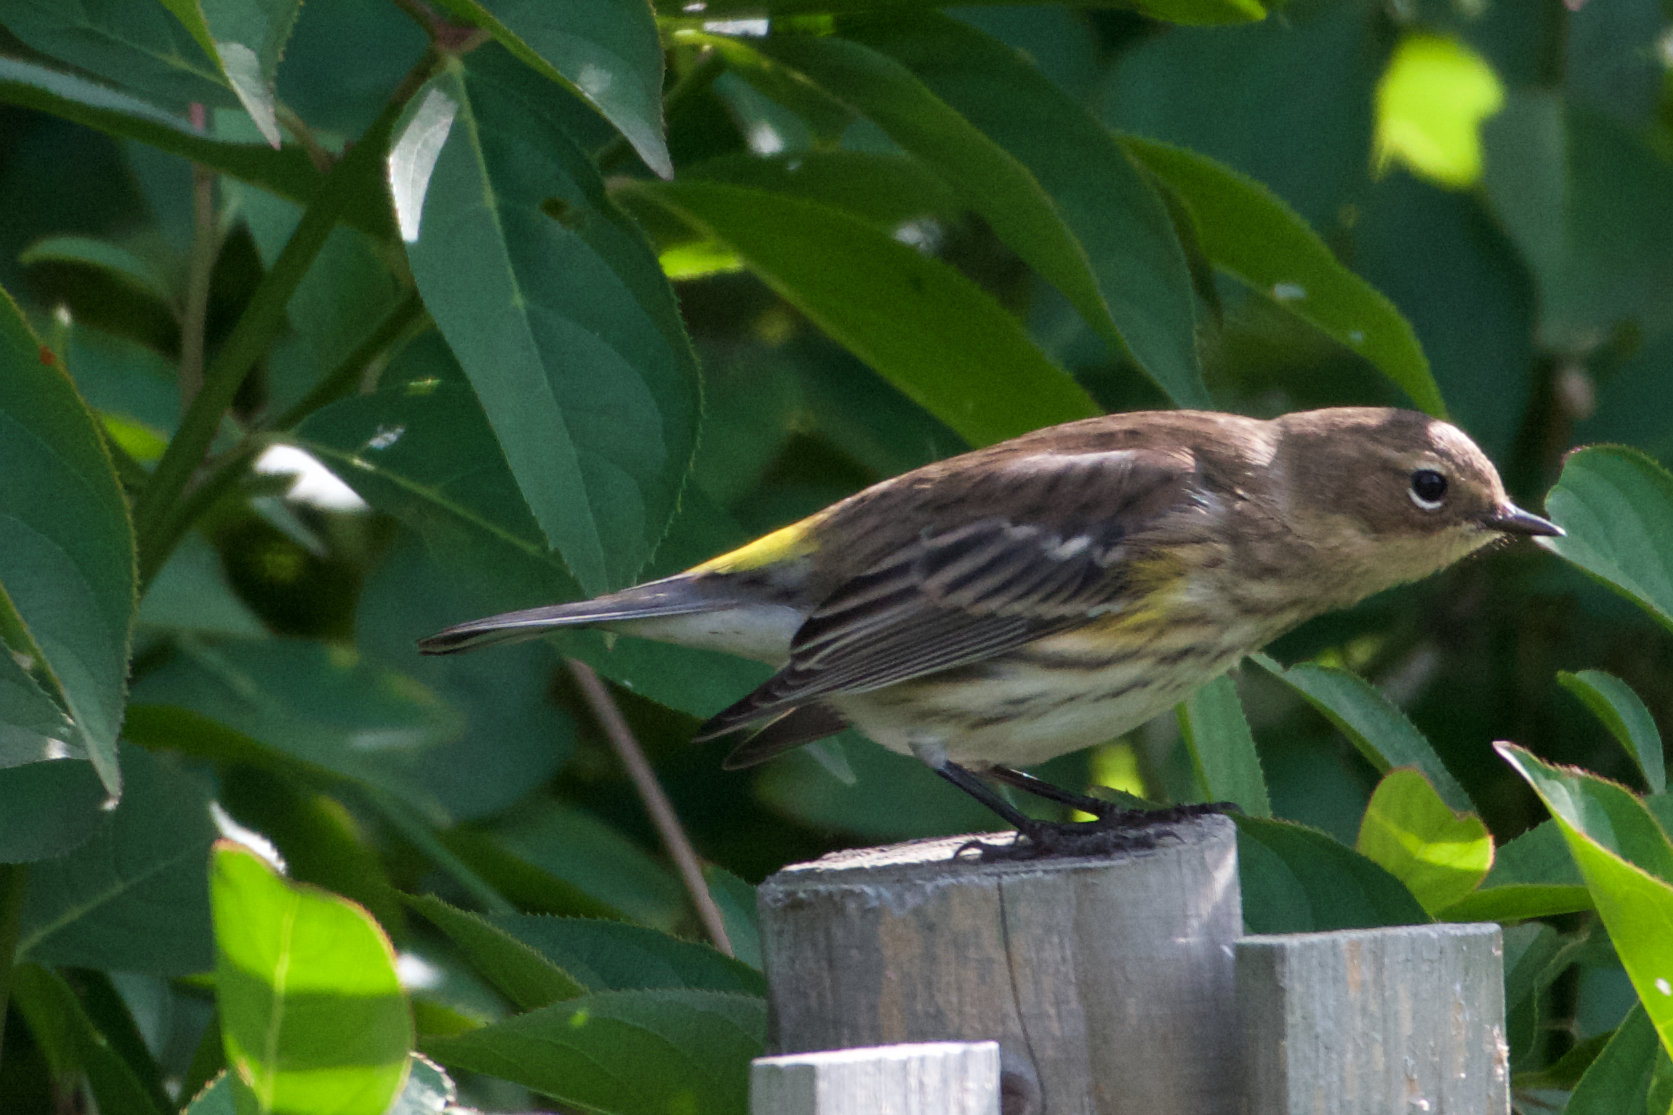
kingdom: Animalia
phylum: Chordata
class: Aves
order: Passeriformes
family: Parulidae
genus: Setophaga
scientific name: Setophaga coronata
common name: Myrtle warbler
